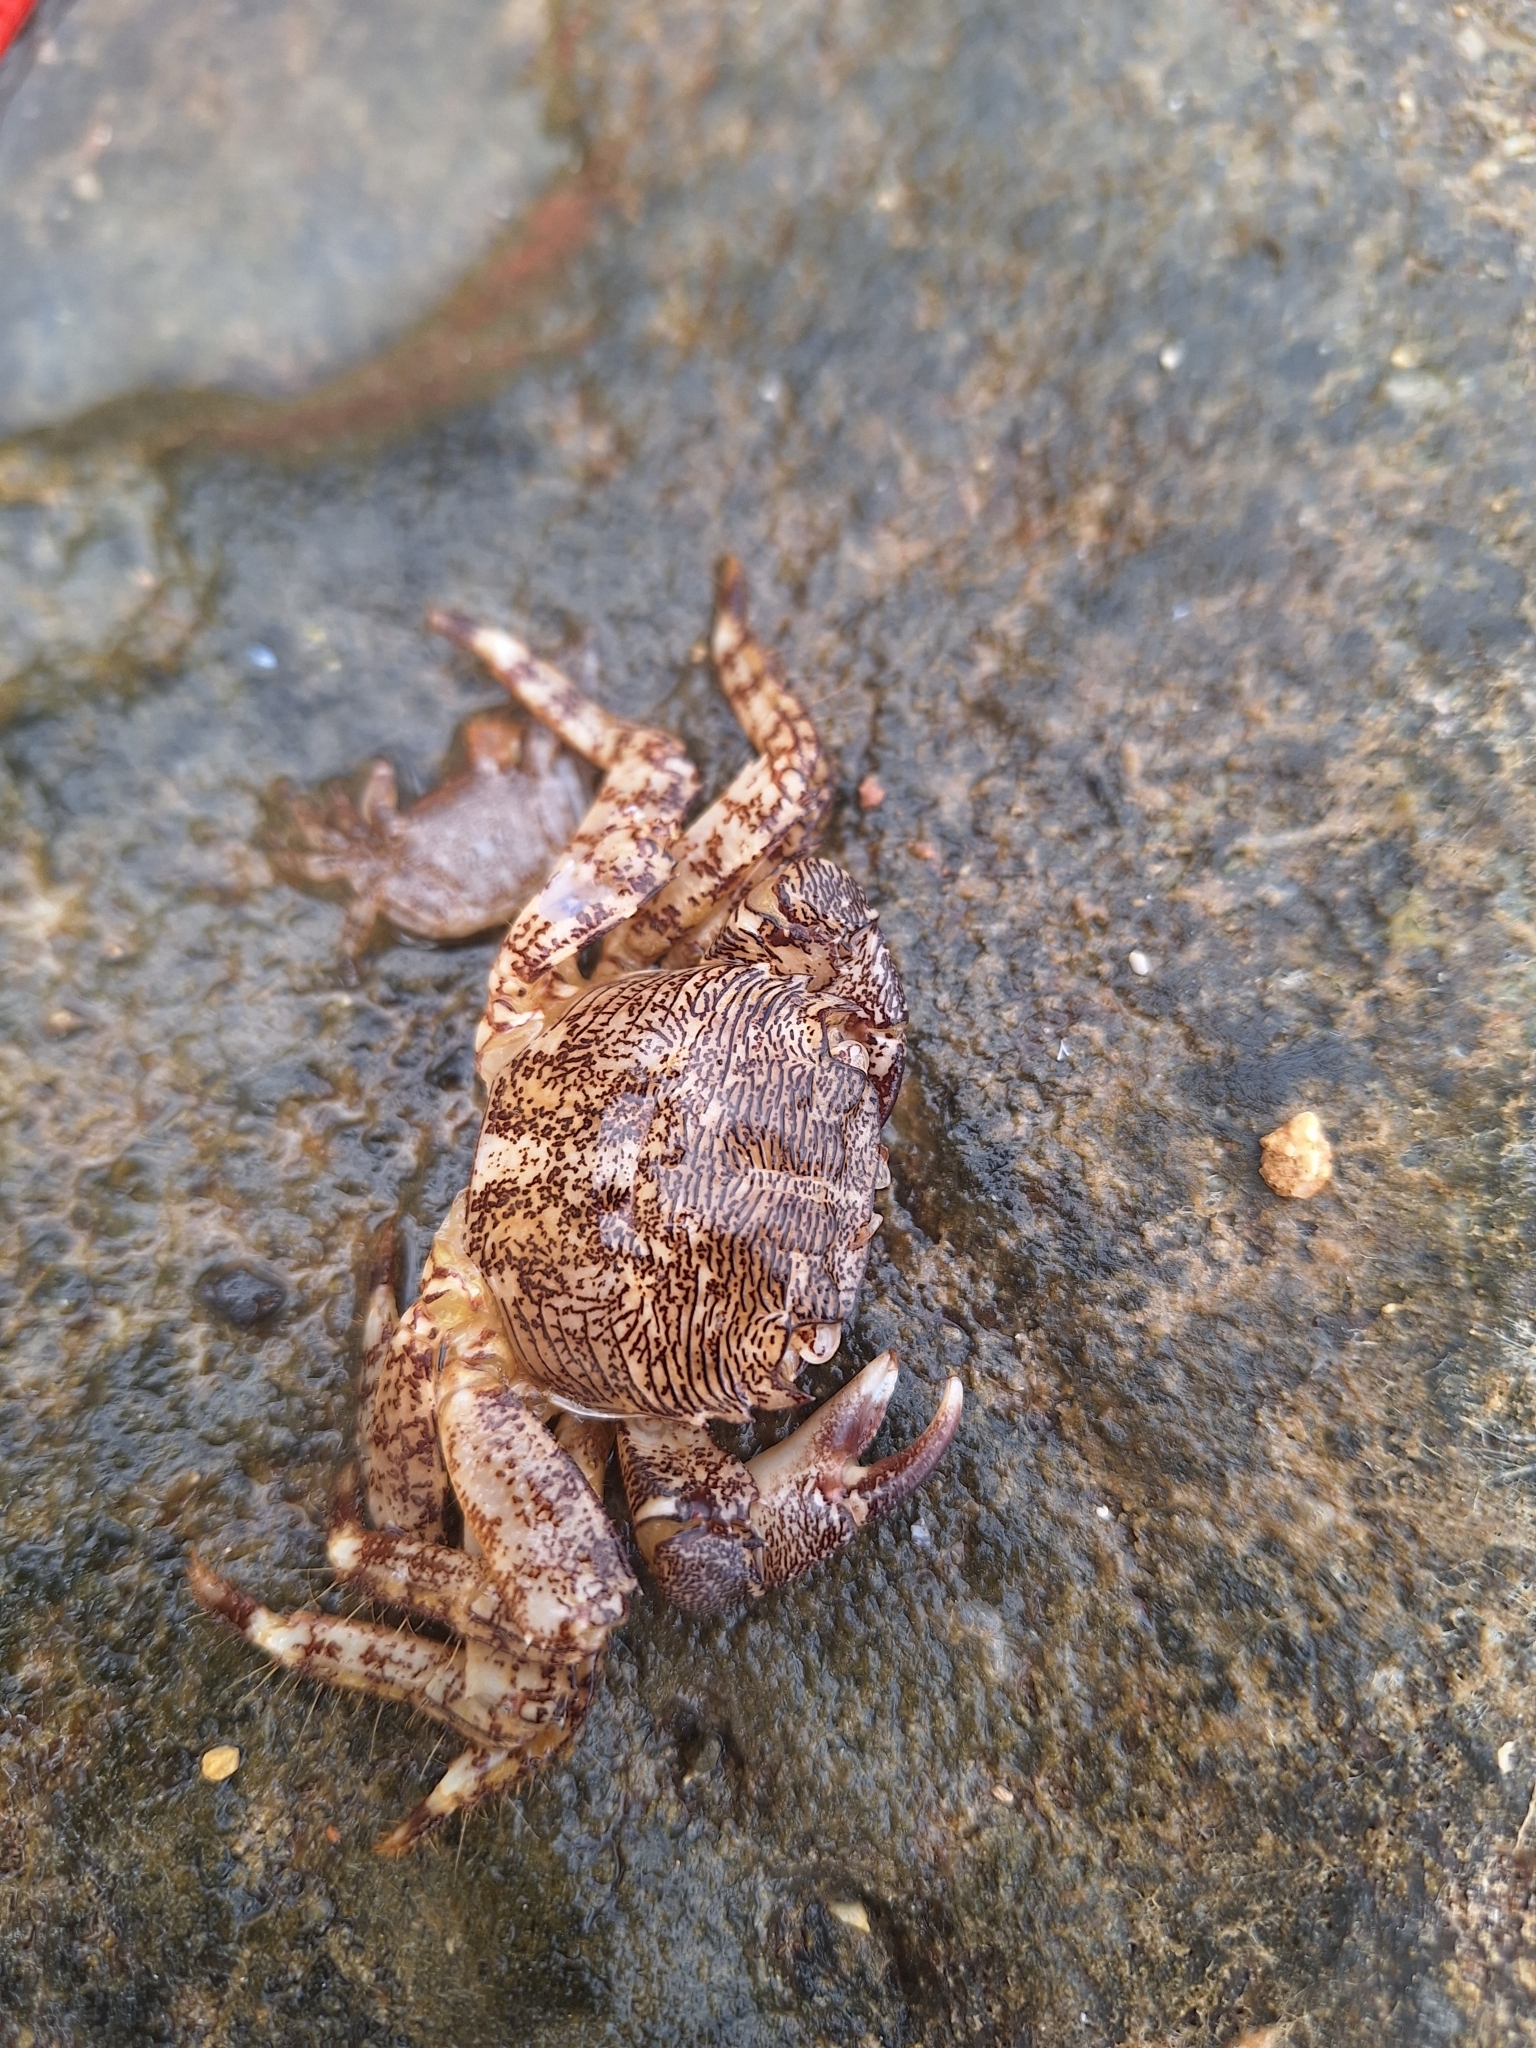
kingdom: Animalia
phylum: Arthropoda
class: Malacostraca
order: Decapoda
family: Grapsidae
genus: Pachygrapsus
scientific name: Pachygrapsus marmoratus
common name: Marbled rock crab
